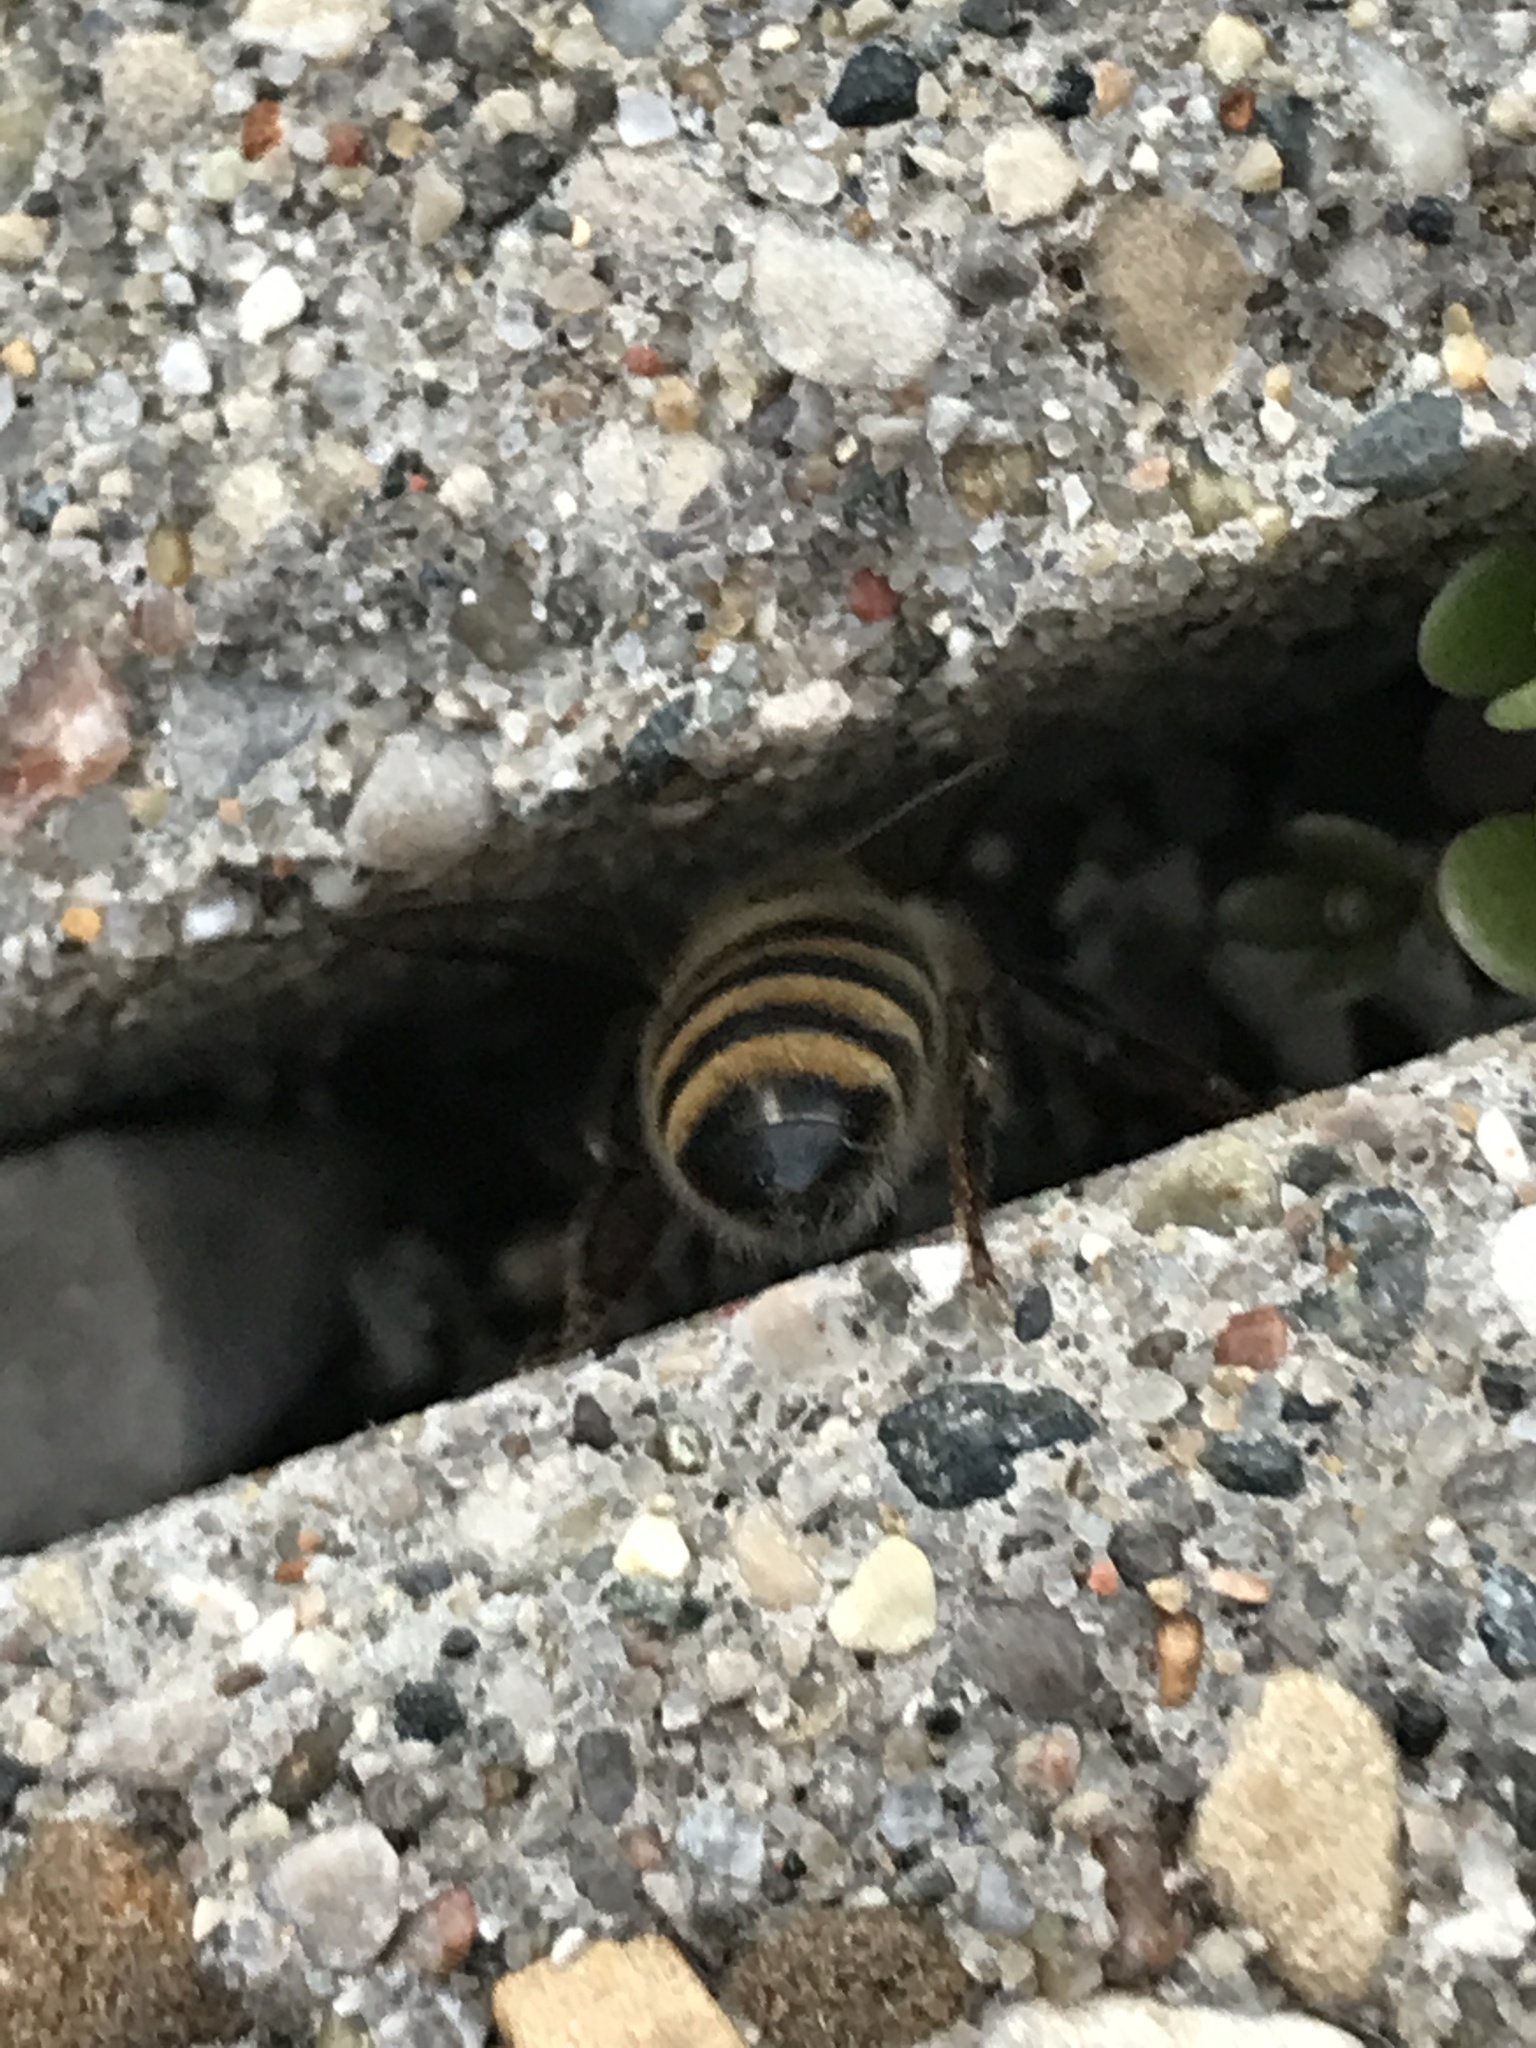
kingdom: Animalia
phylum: Arthropoda
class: Insecta
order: Hymenoptera
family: Apidae
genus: Apis
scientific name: Apis mellifera
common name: Honey bee
